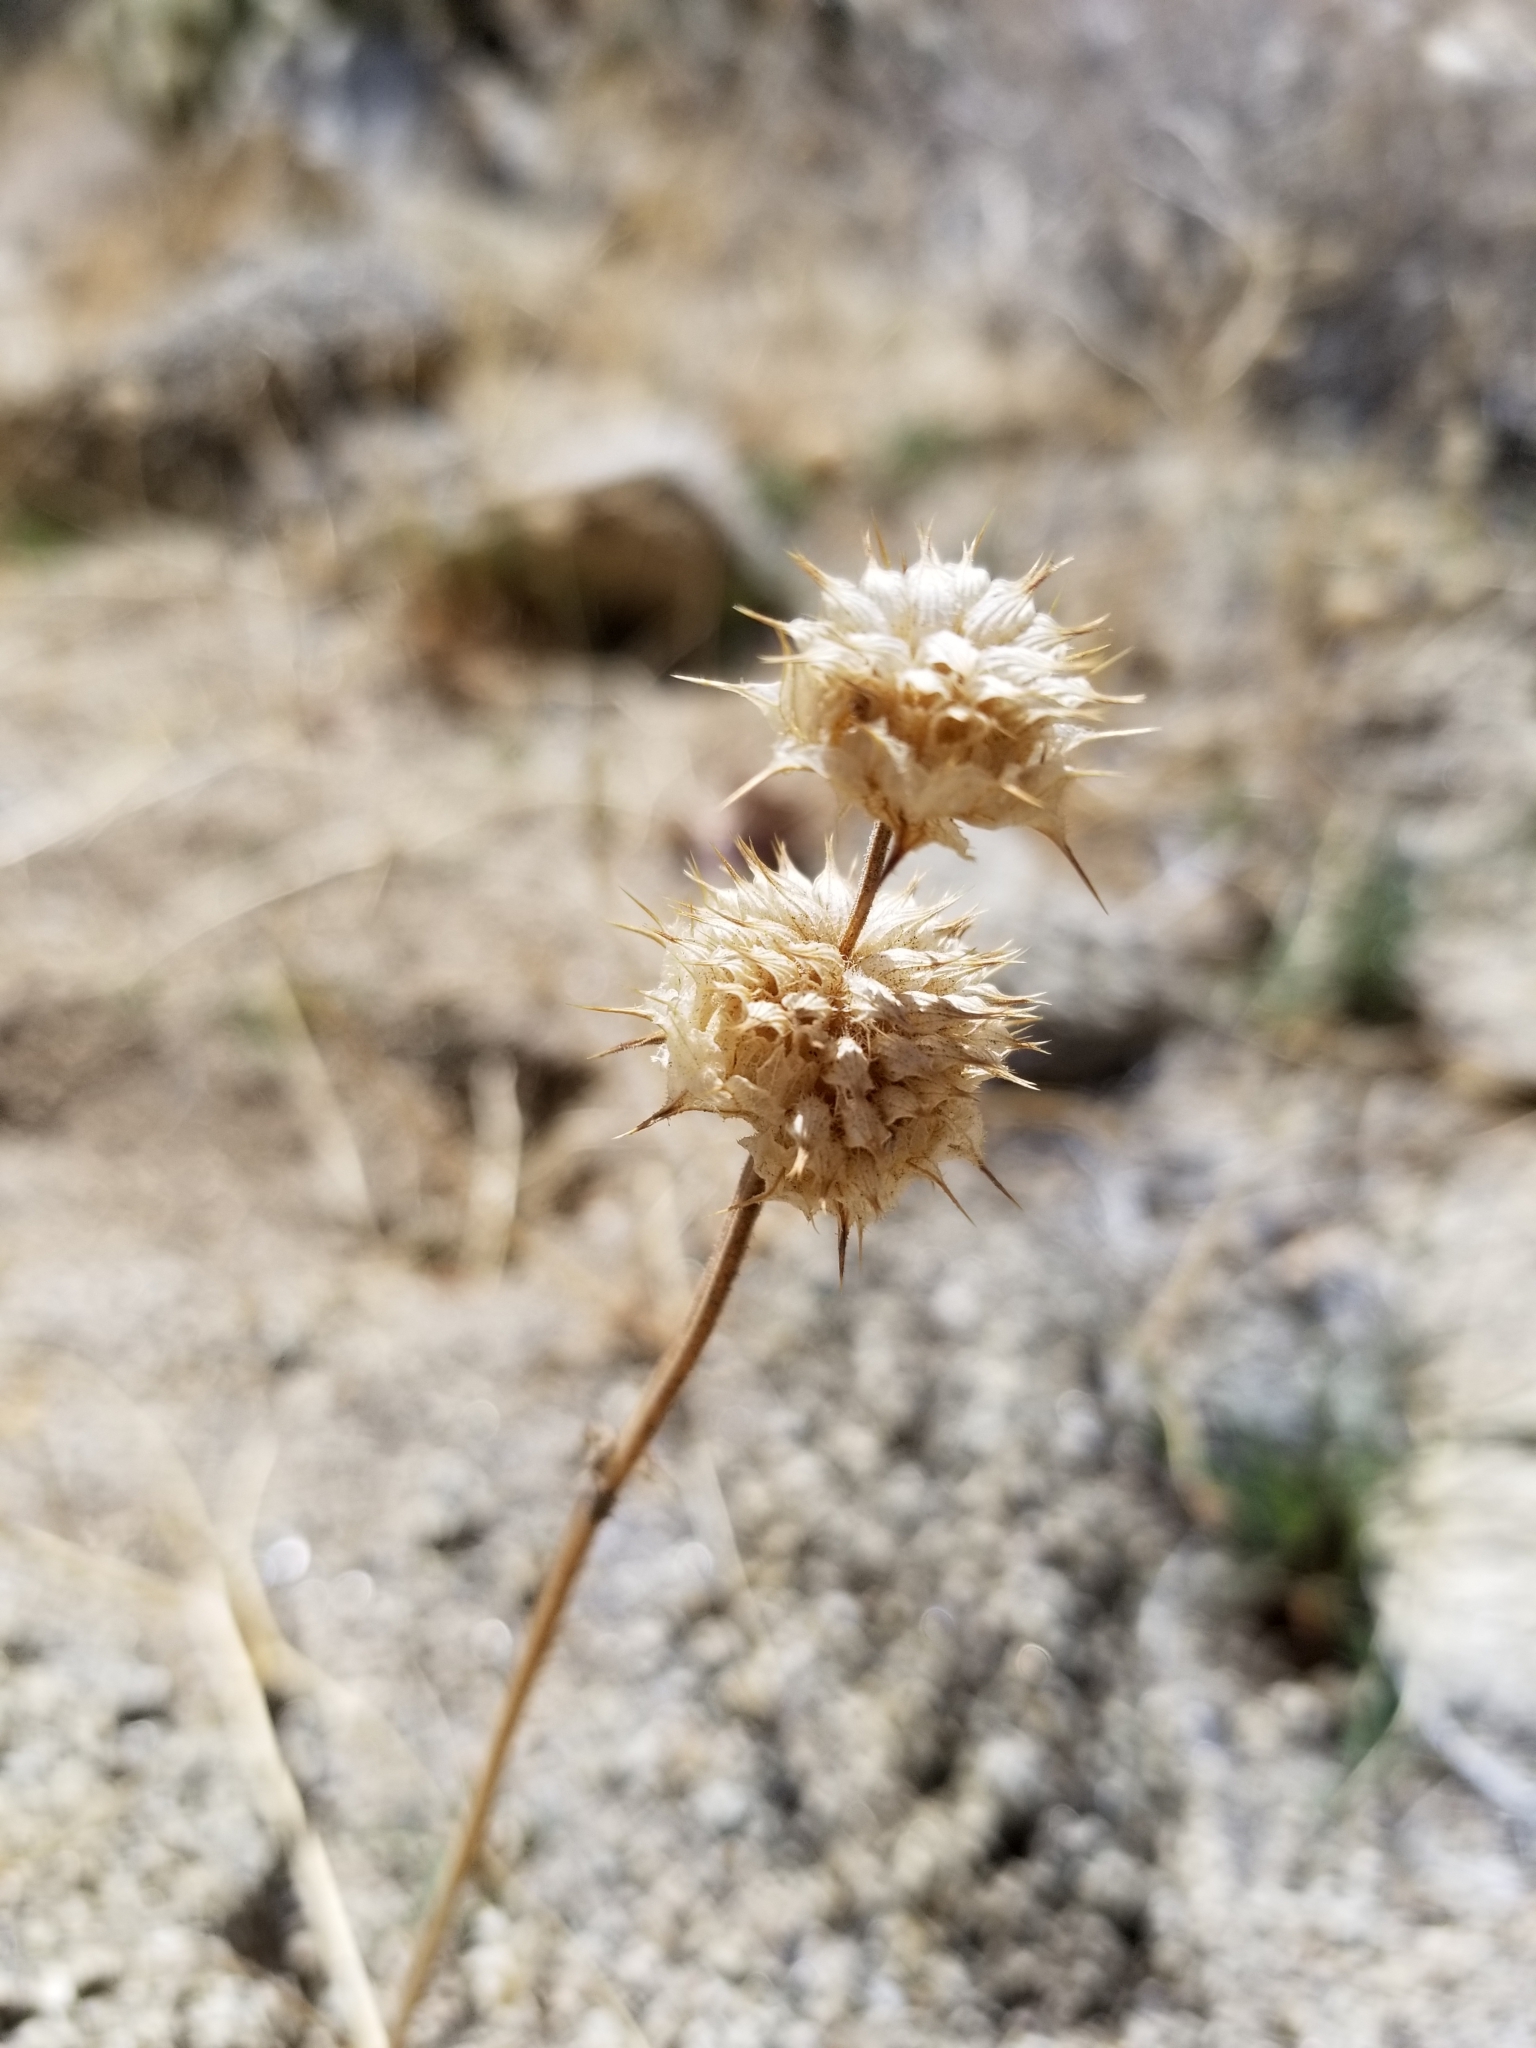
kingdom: Plantae
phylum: Tracheophyta
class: Magnoliopsida
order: Lamiales
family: Lamiaceae
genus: Salvia
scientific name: Salvia columbariae
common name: Chia
